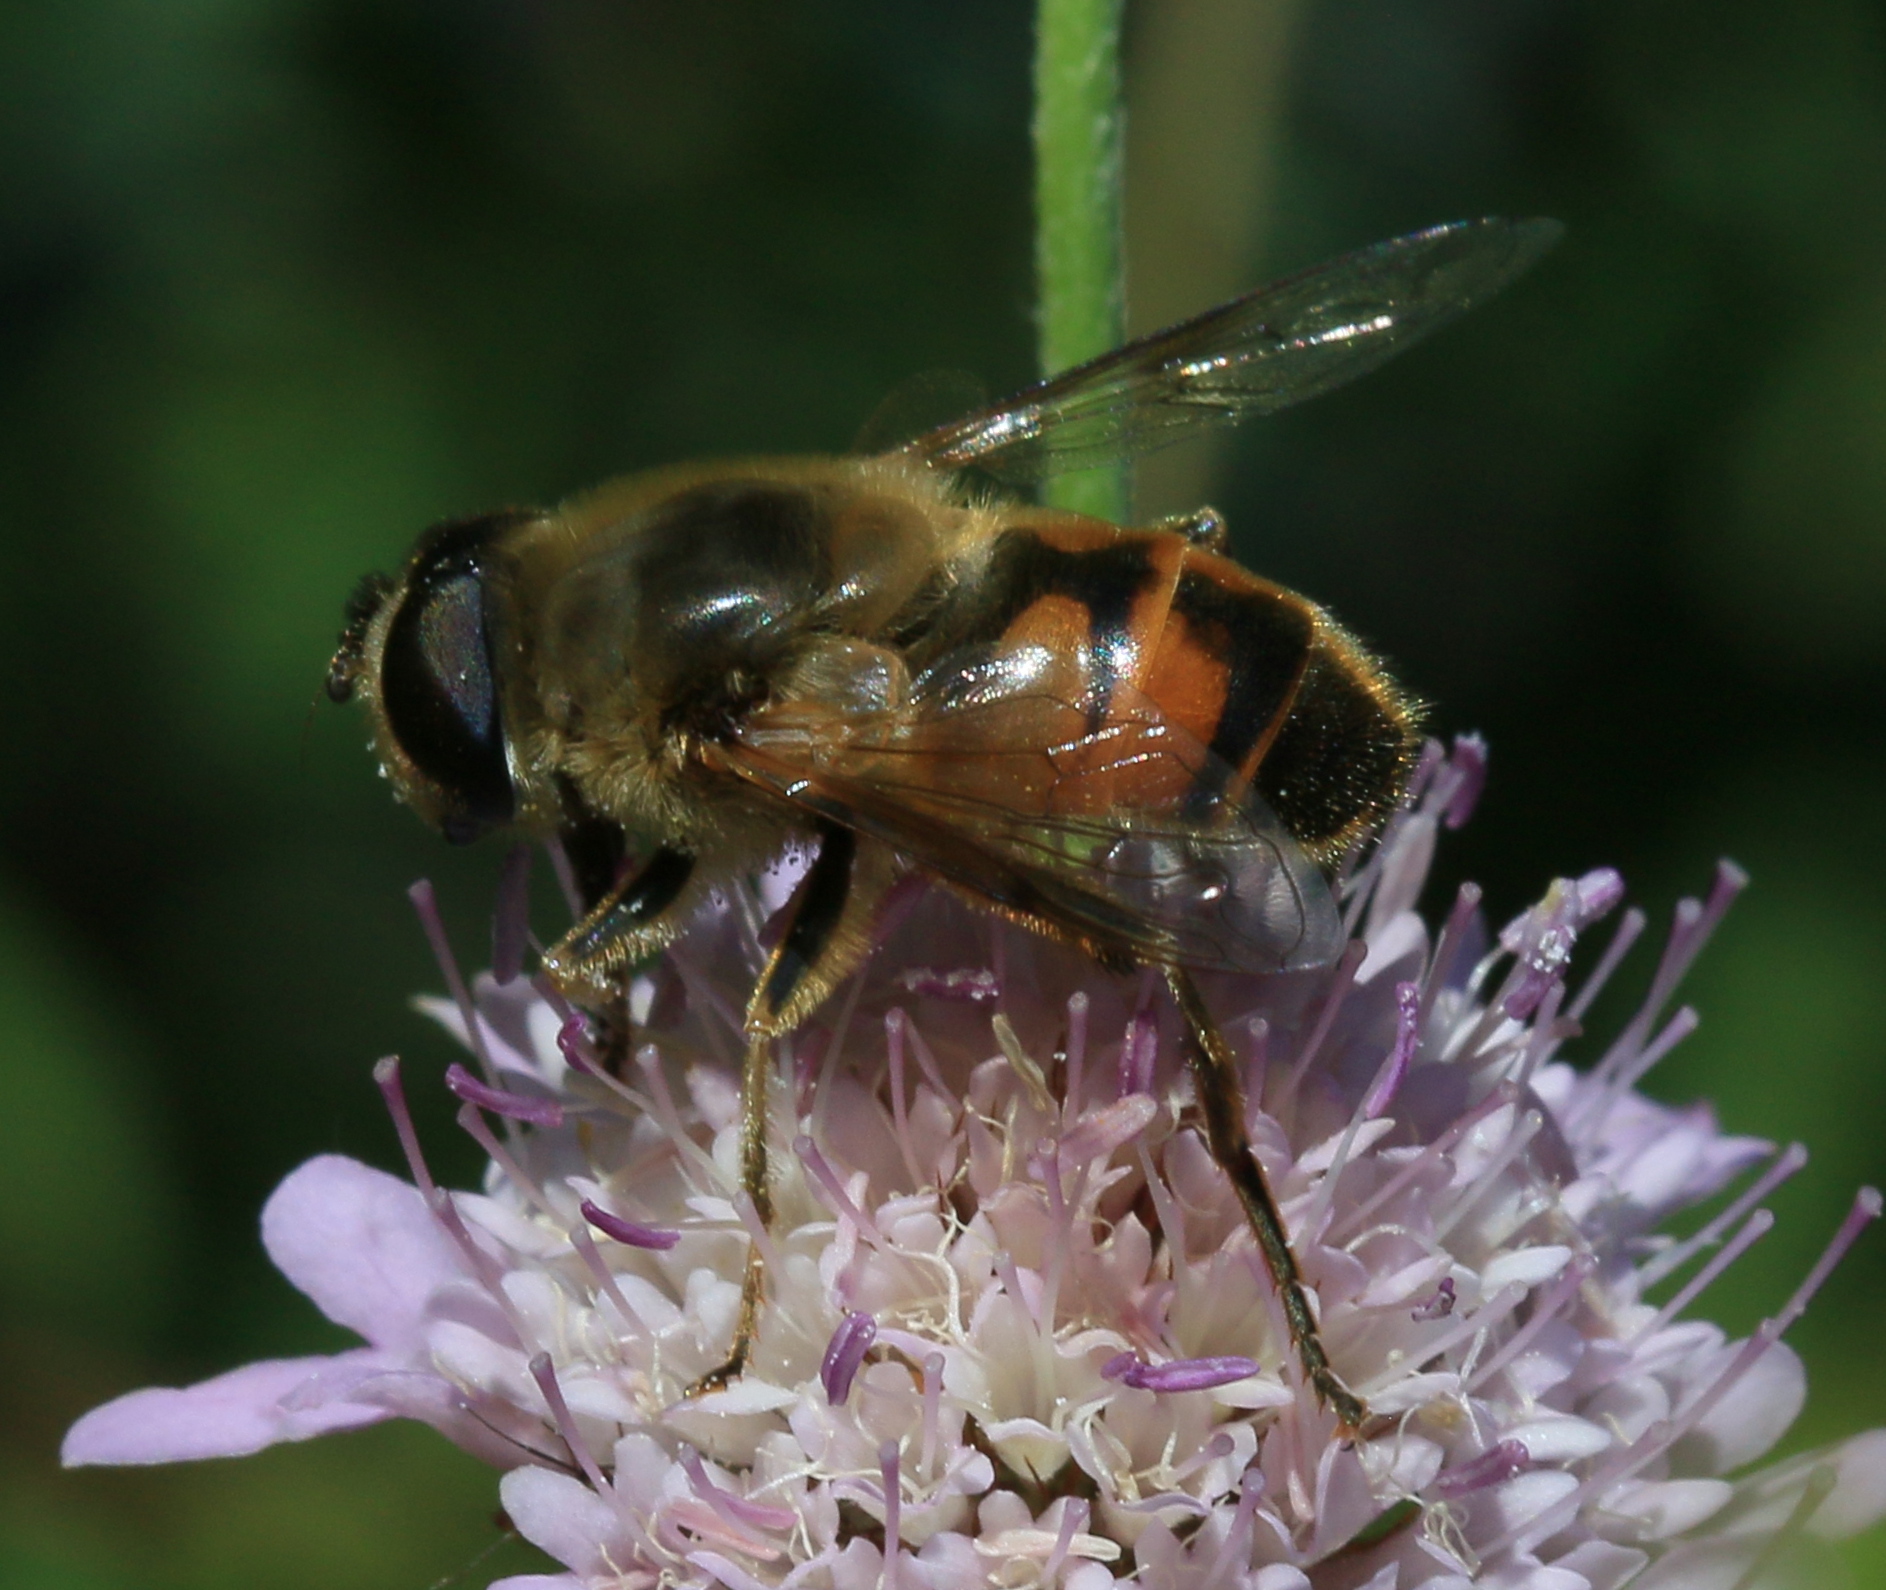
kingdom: Animalia
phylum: Arthropoda
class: Insecta
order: Diptera
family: Syrphidae
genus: Eristalis
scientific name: Eristalis tenax
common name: Drone fly
